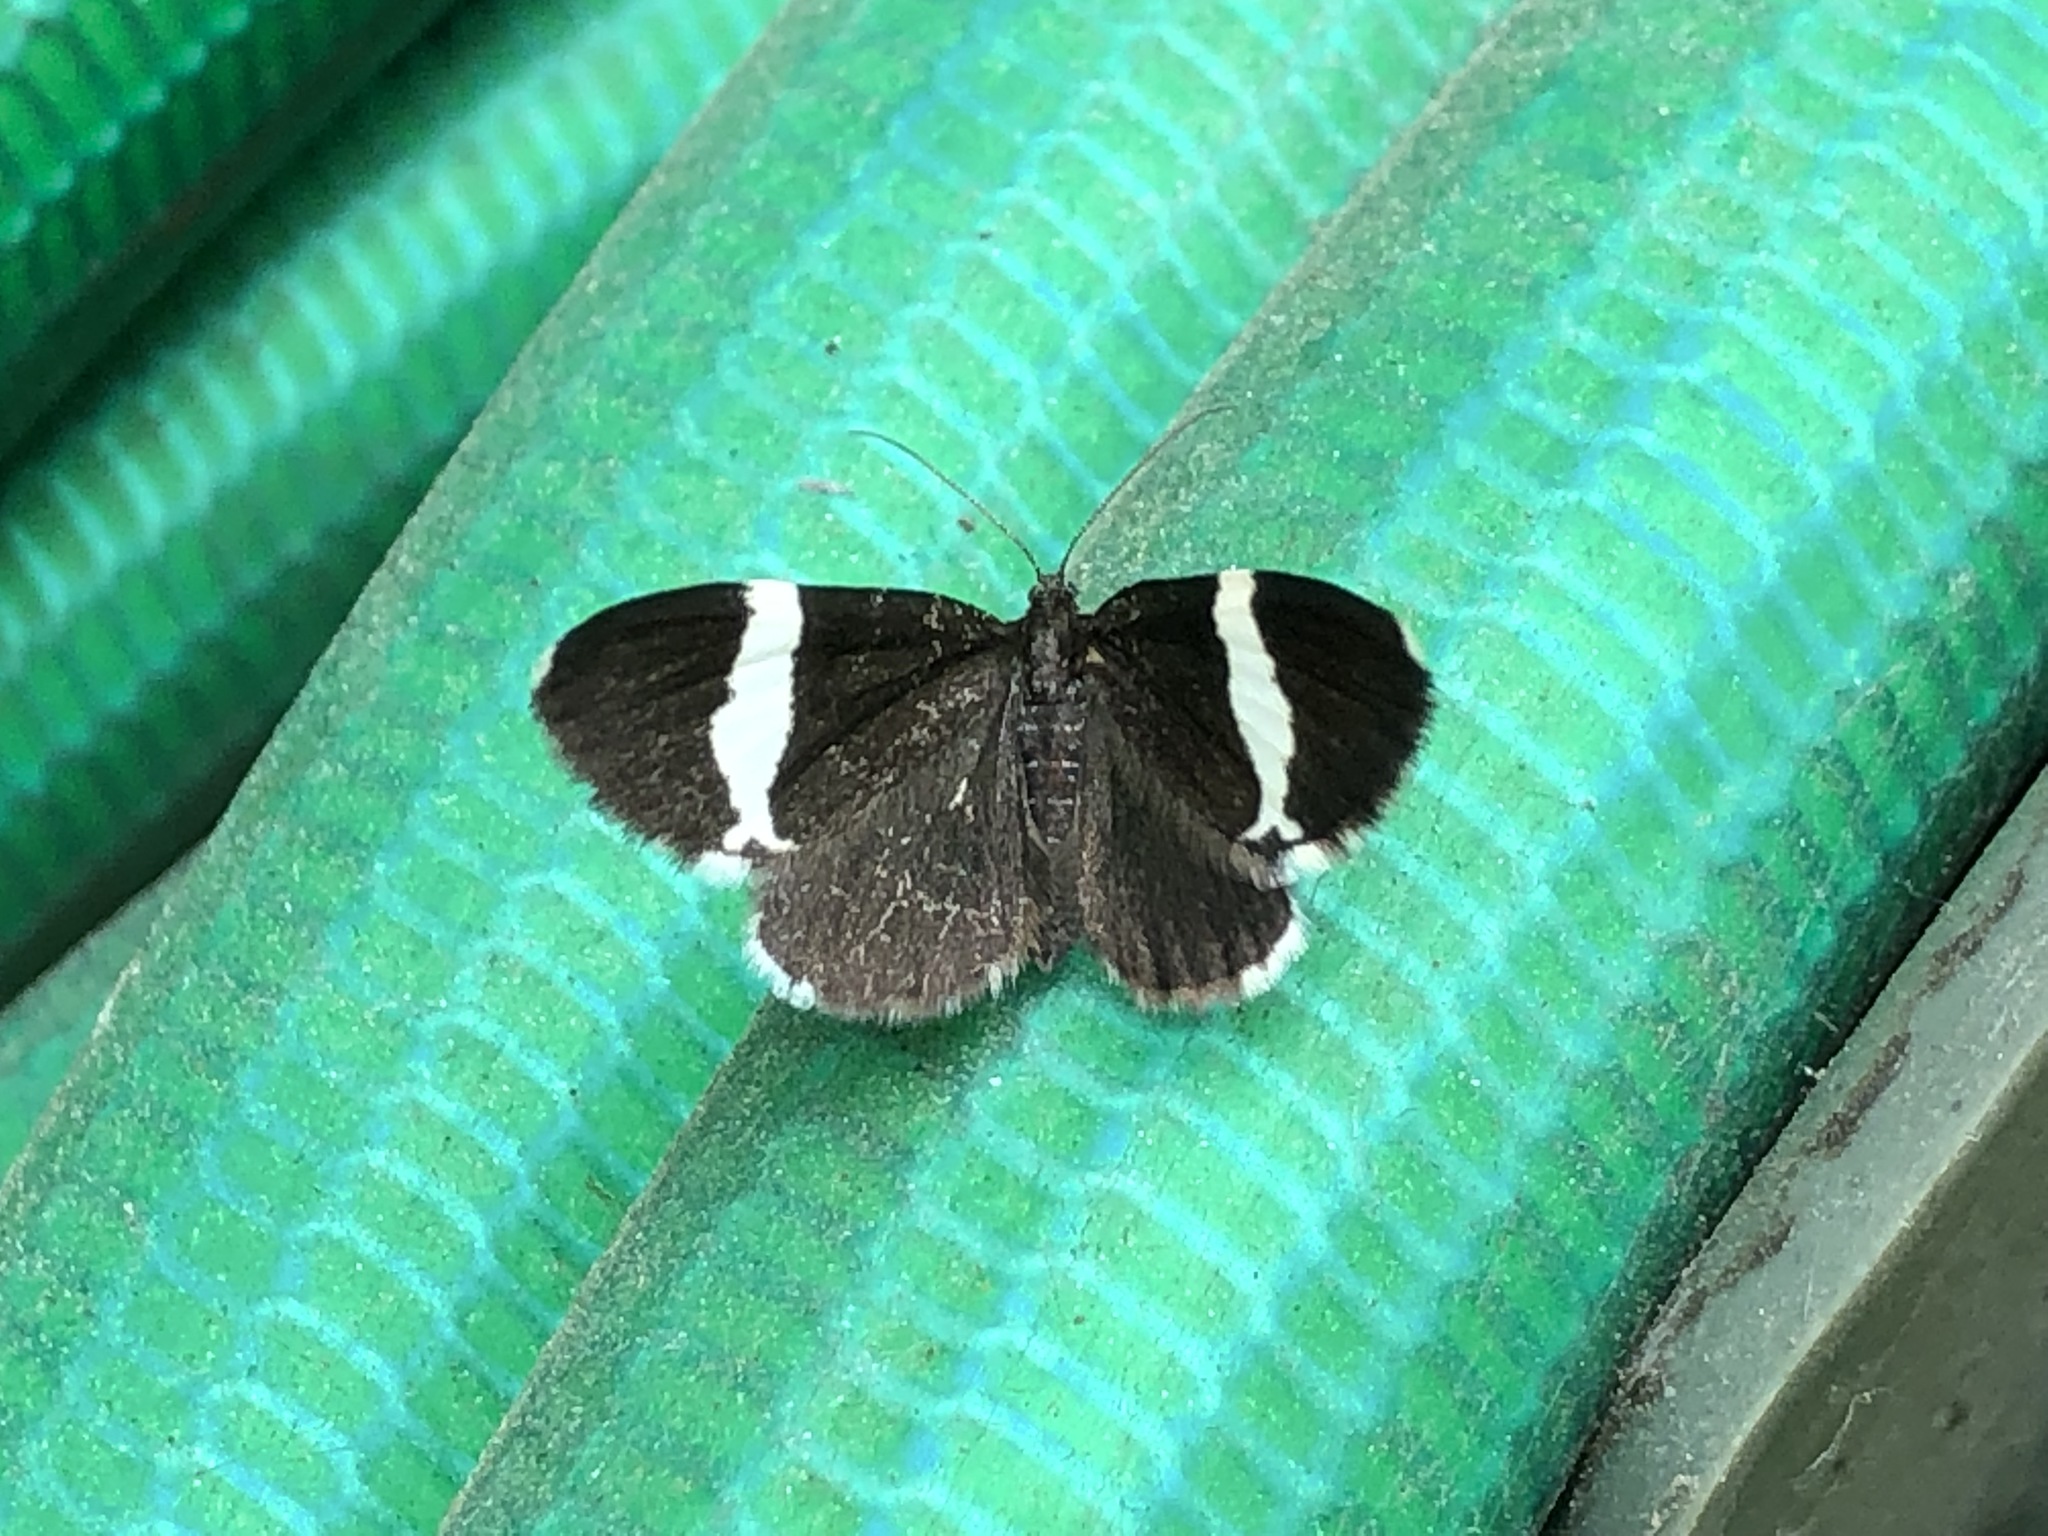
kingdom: Animalia
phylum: Arthropoda
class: Insecta
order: Lepidoptera
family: Geometridae
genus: Trichodezia
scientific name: Trichodezia albovittata
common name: White striped black
